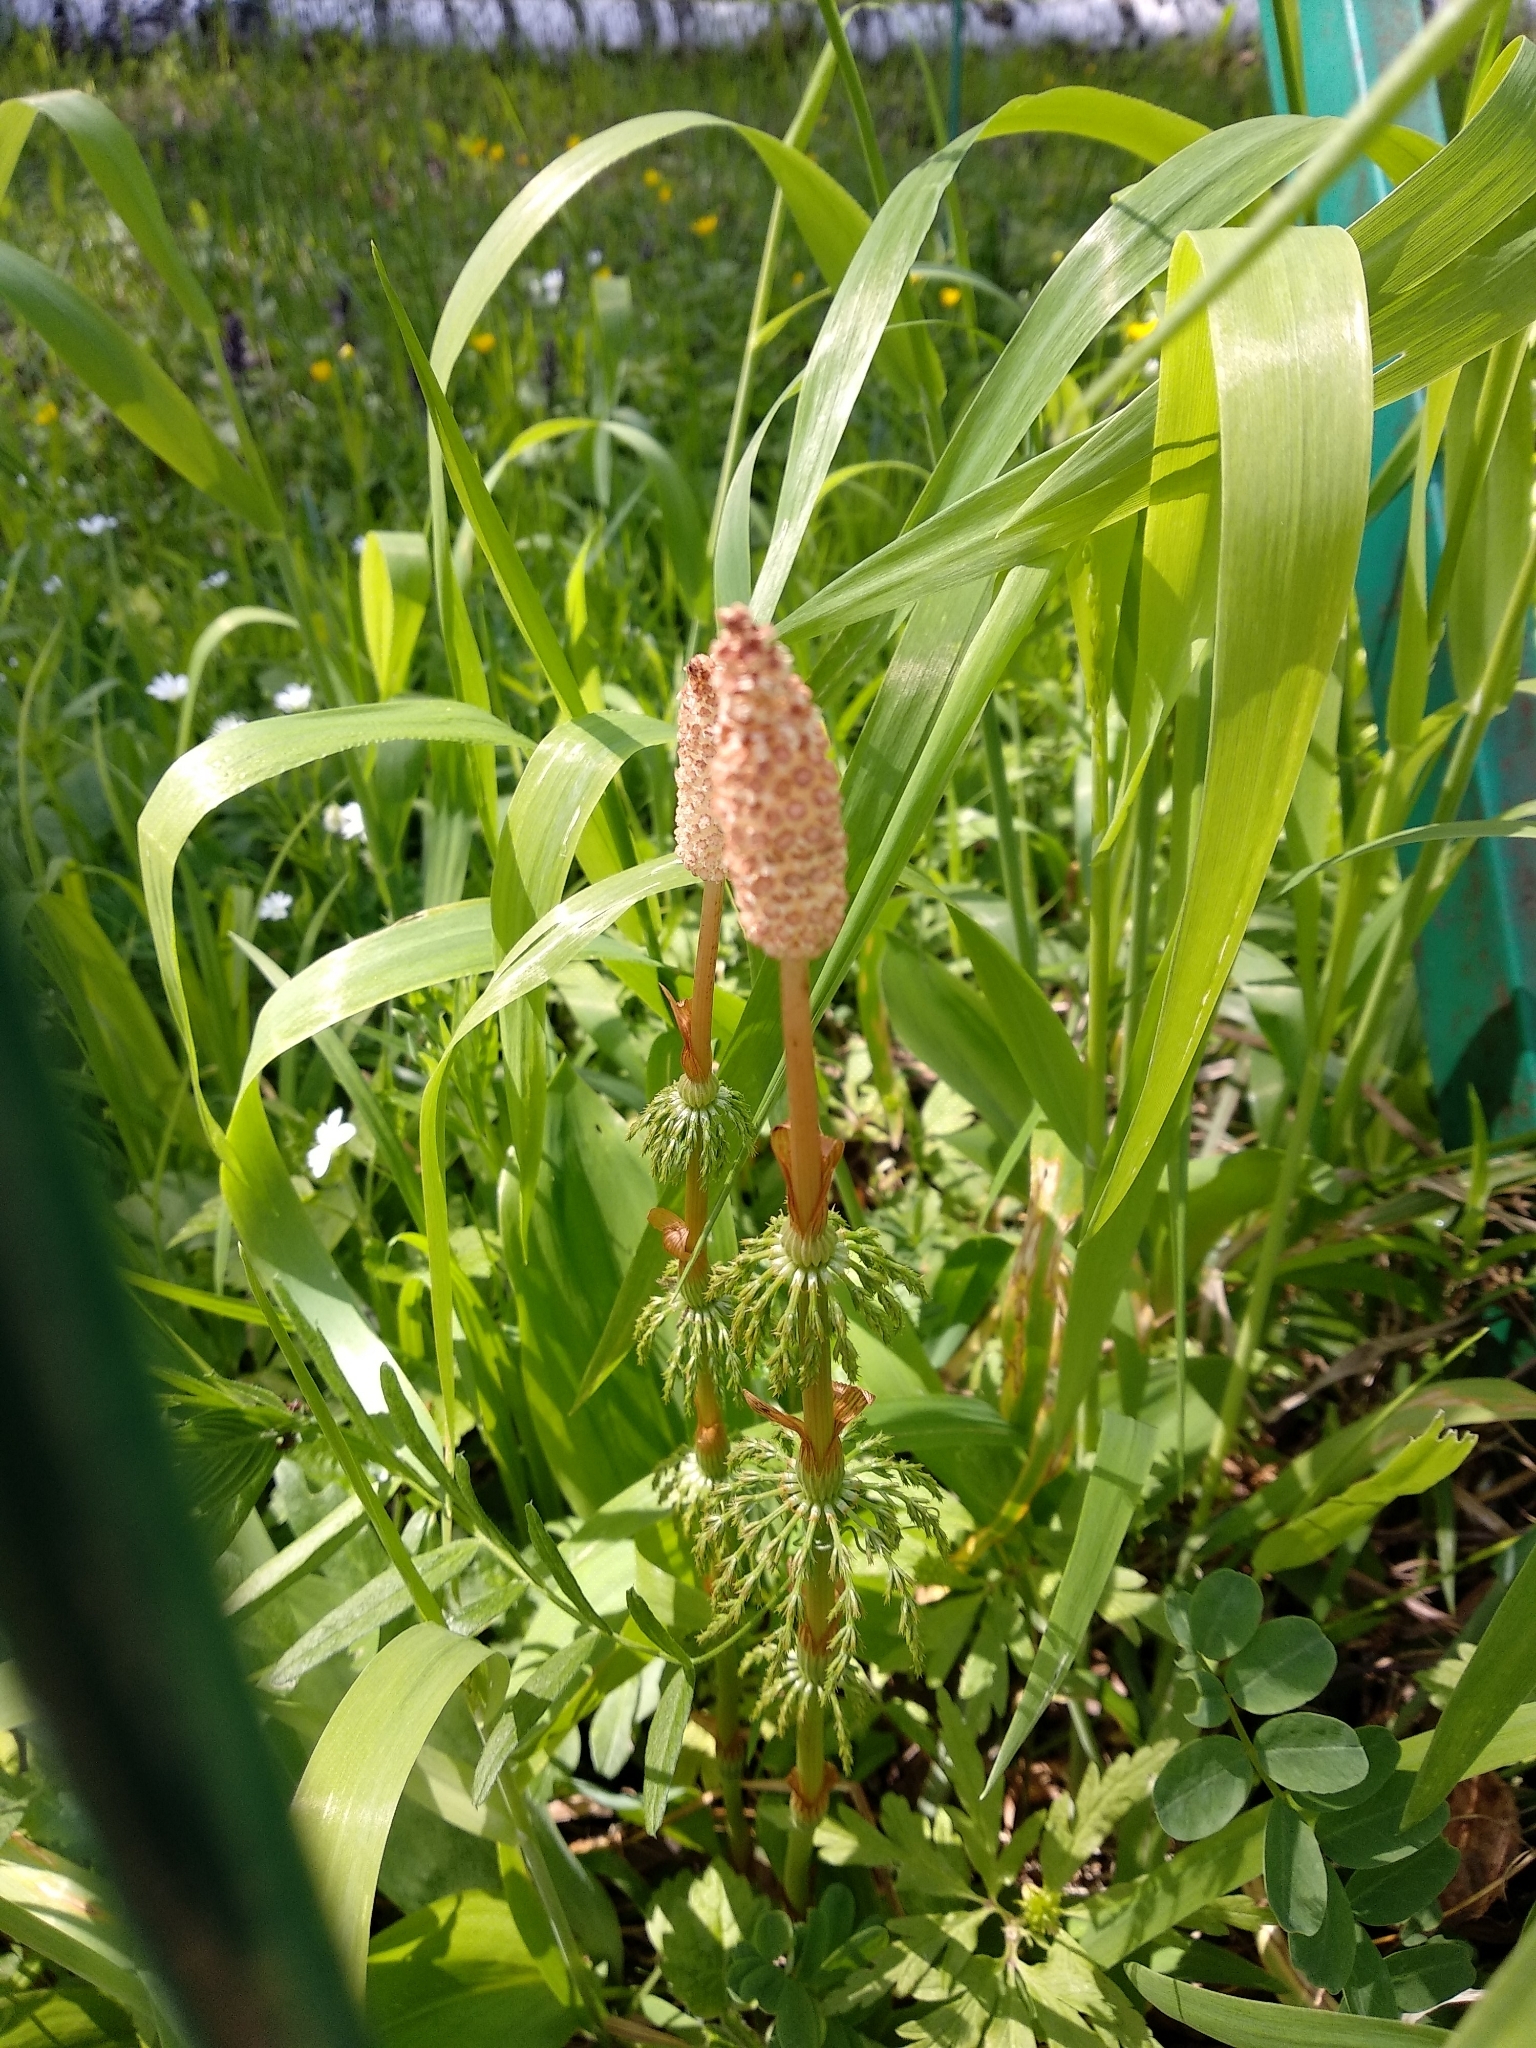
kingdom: Plantae
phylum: Tracheophyta
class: Polypodiopsida
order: Equisetales
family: Equisetaceae
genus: Equisetum
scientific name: Equisetum sylvaticum
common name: Wood horsetail
